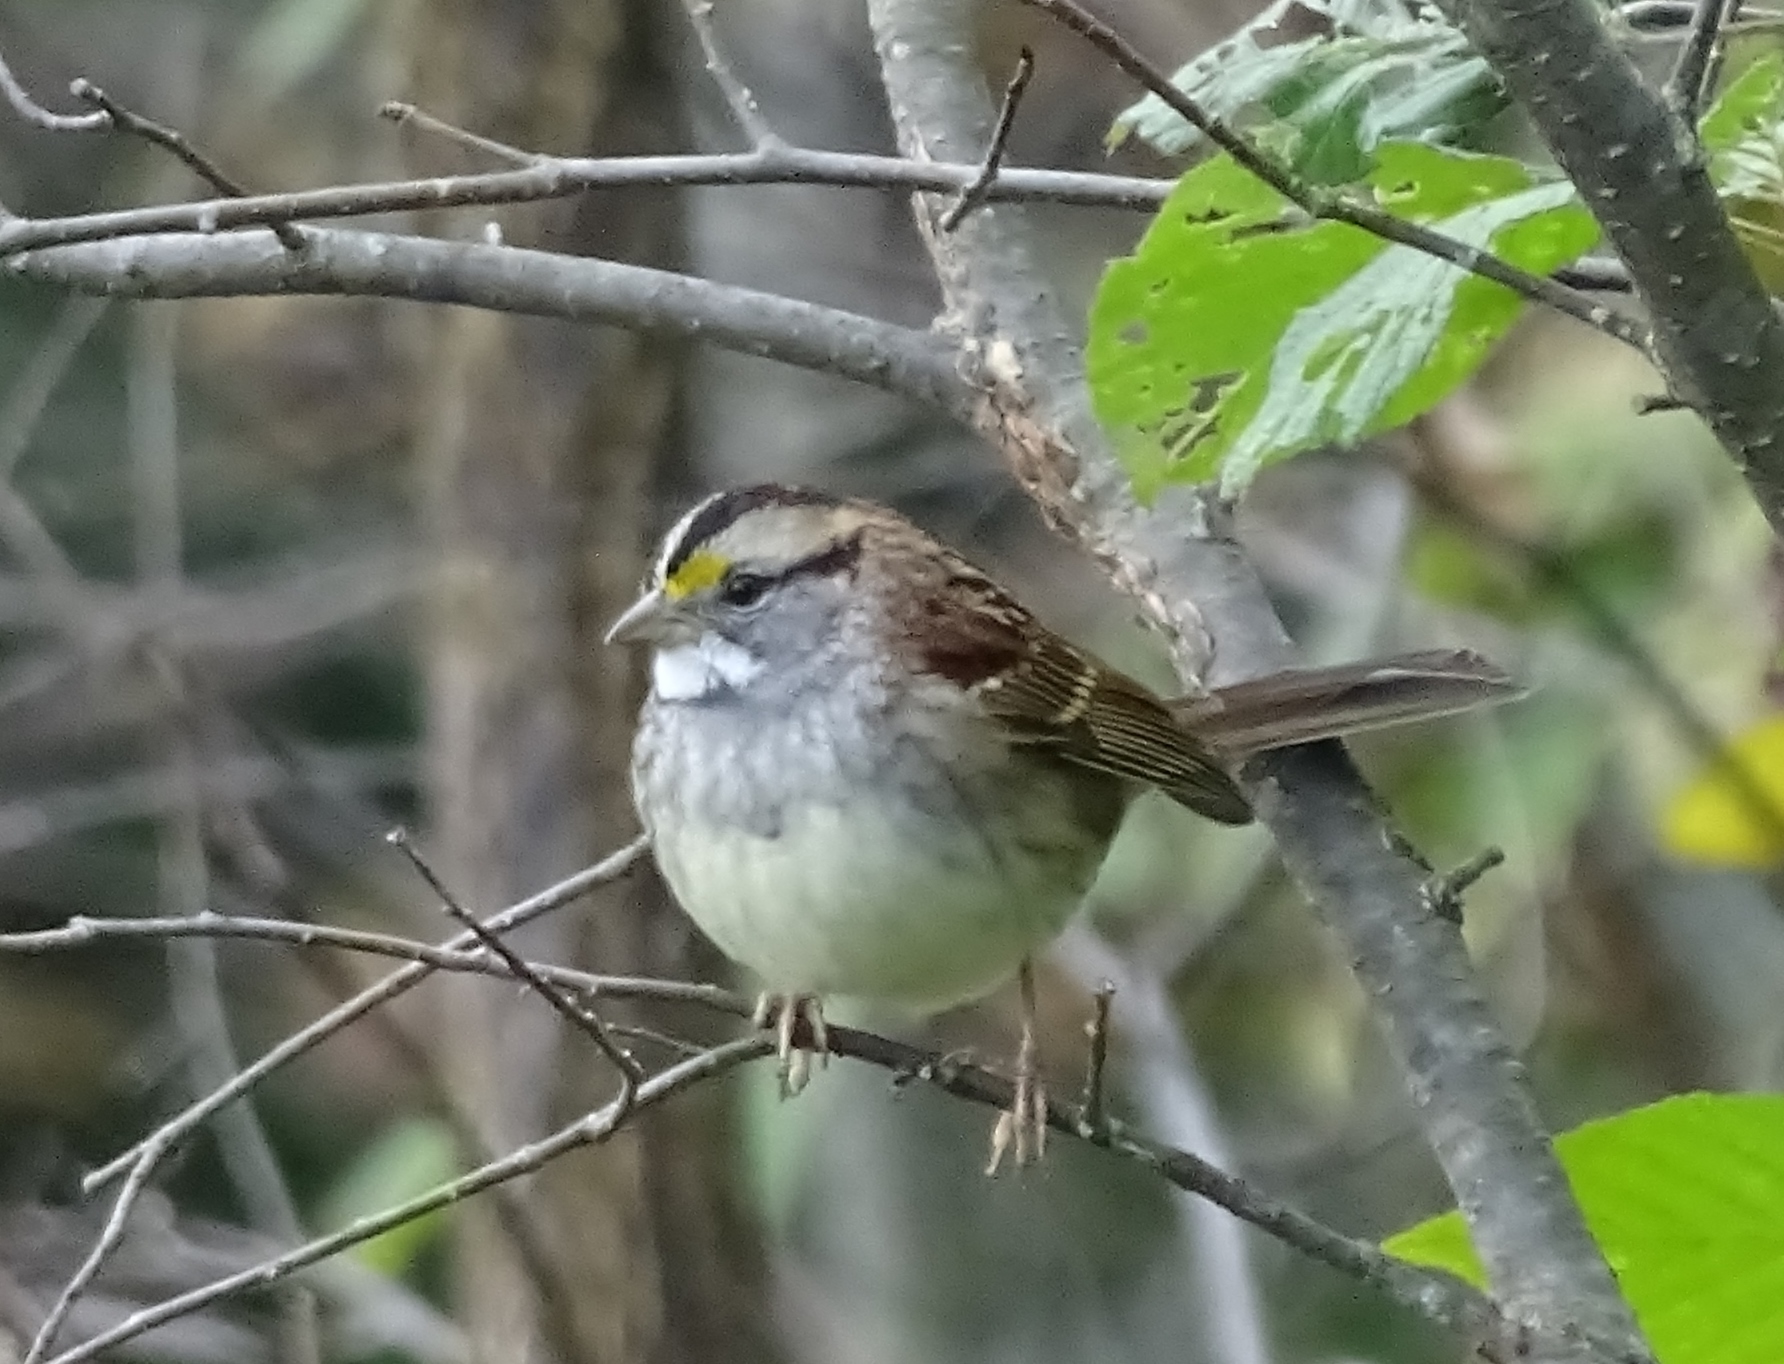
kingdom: Animalia
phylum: Chordata
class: Aves
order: Passeriformes
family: Passerellidae
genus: Zonotrichia
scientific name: Zonotrichia albicollis
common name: White-throated sparrow
